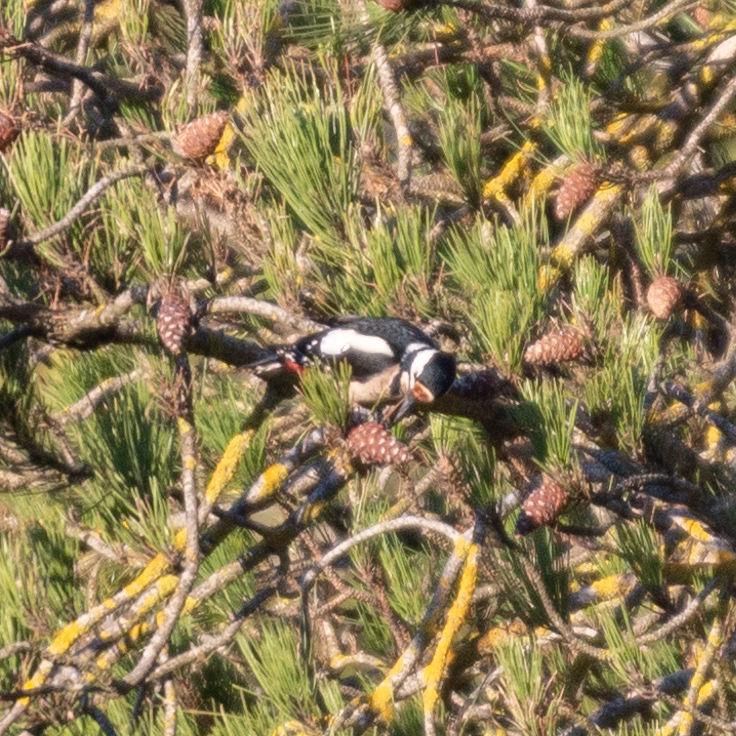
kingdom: Animalia
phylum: Chordata
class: Aves
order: Piciformes
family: Picidae
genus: Dendrocopos
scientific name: Dendrocopos major
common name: Great spotted woodpecker
